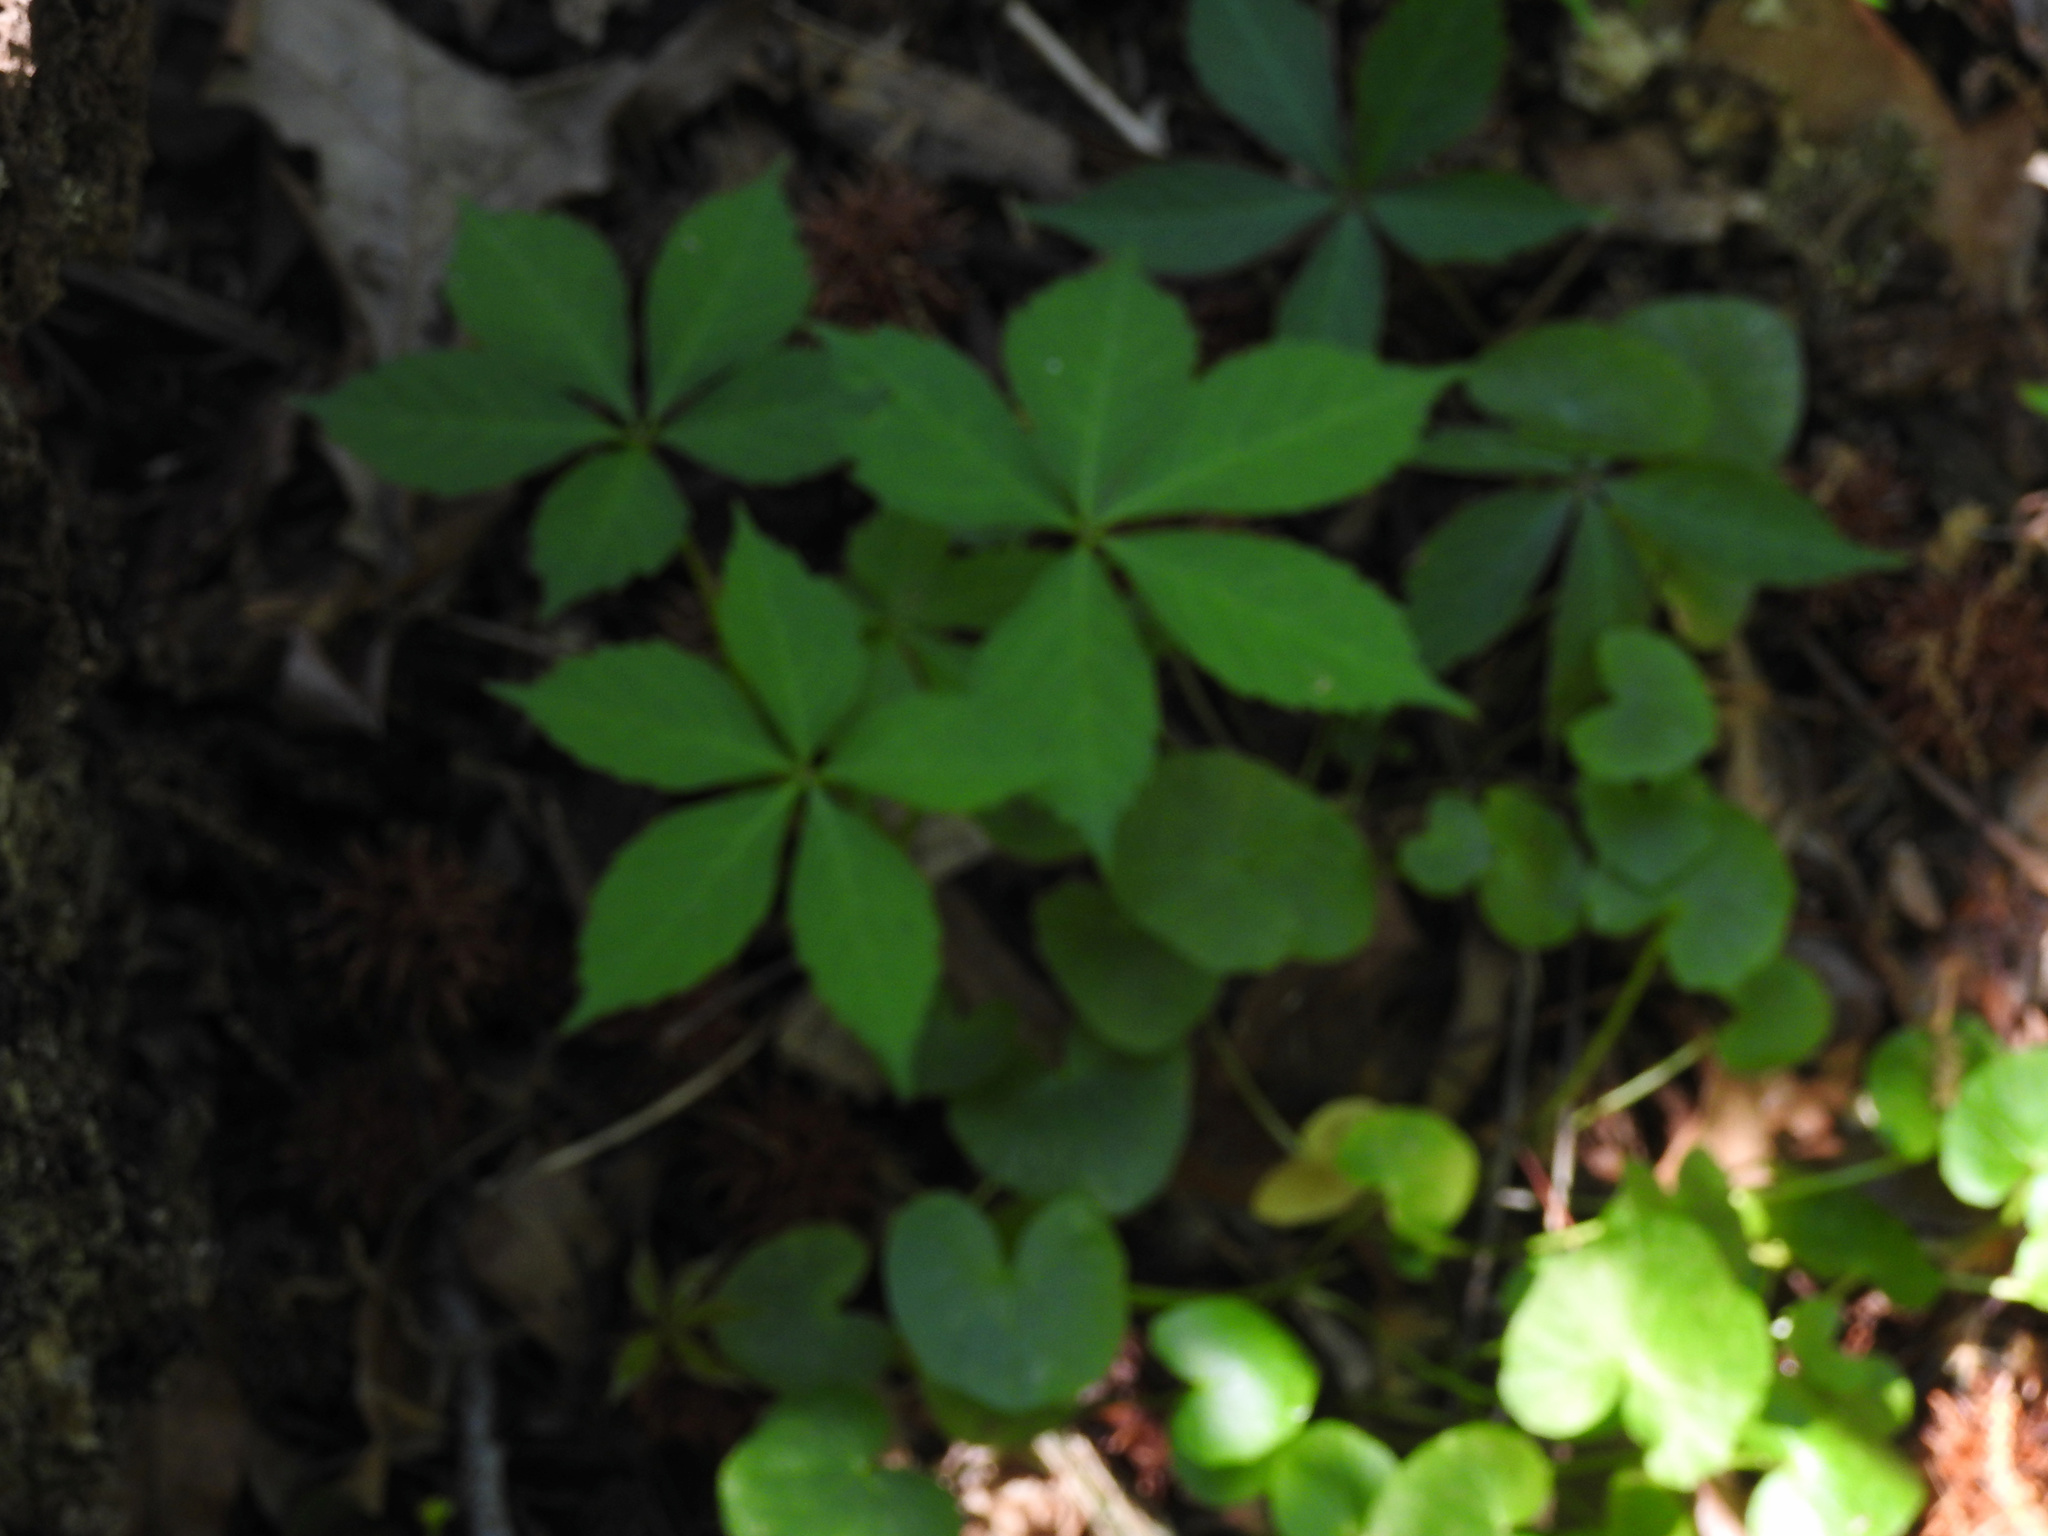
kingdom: Plantae
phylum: Tracheophyta
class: Magnoliopsida
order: Vitales
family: Vitaceae
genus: Parthenocissus
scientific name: Parthenocissus quinquefolia
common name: Virginia-creeper
